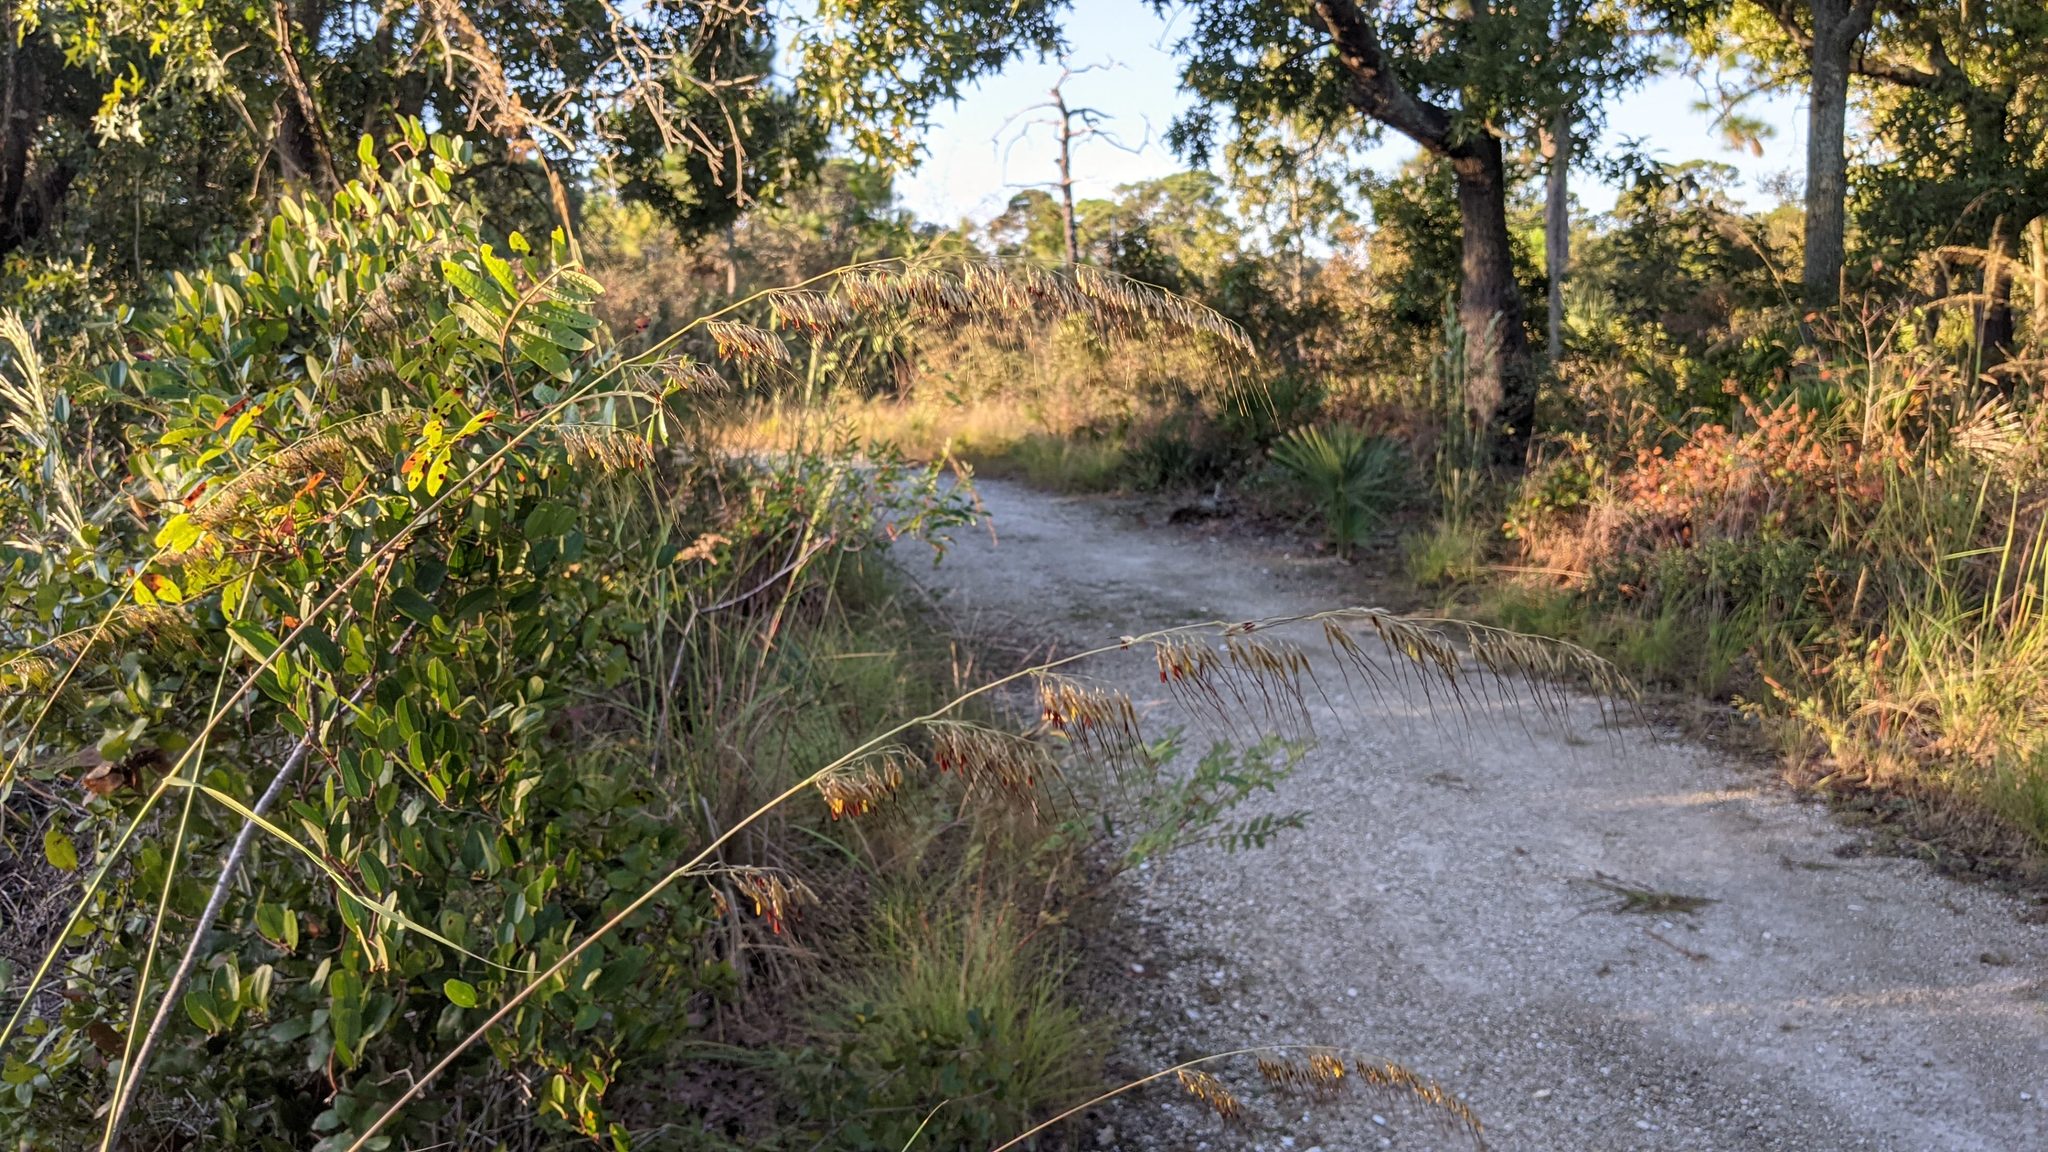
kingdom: Plantae
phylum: Tracheophyta
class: Liliopsida
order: Poales
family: Poaceae
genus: Sorghastrum
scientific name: Sorghastrum secundum
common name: Lopsided indian grass
